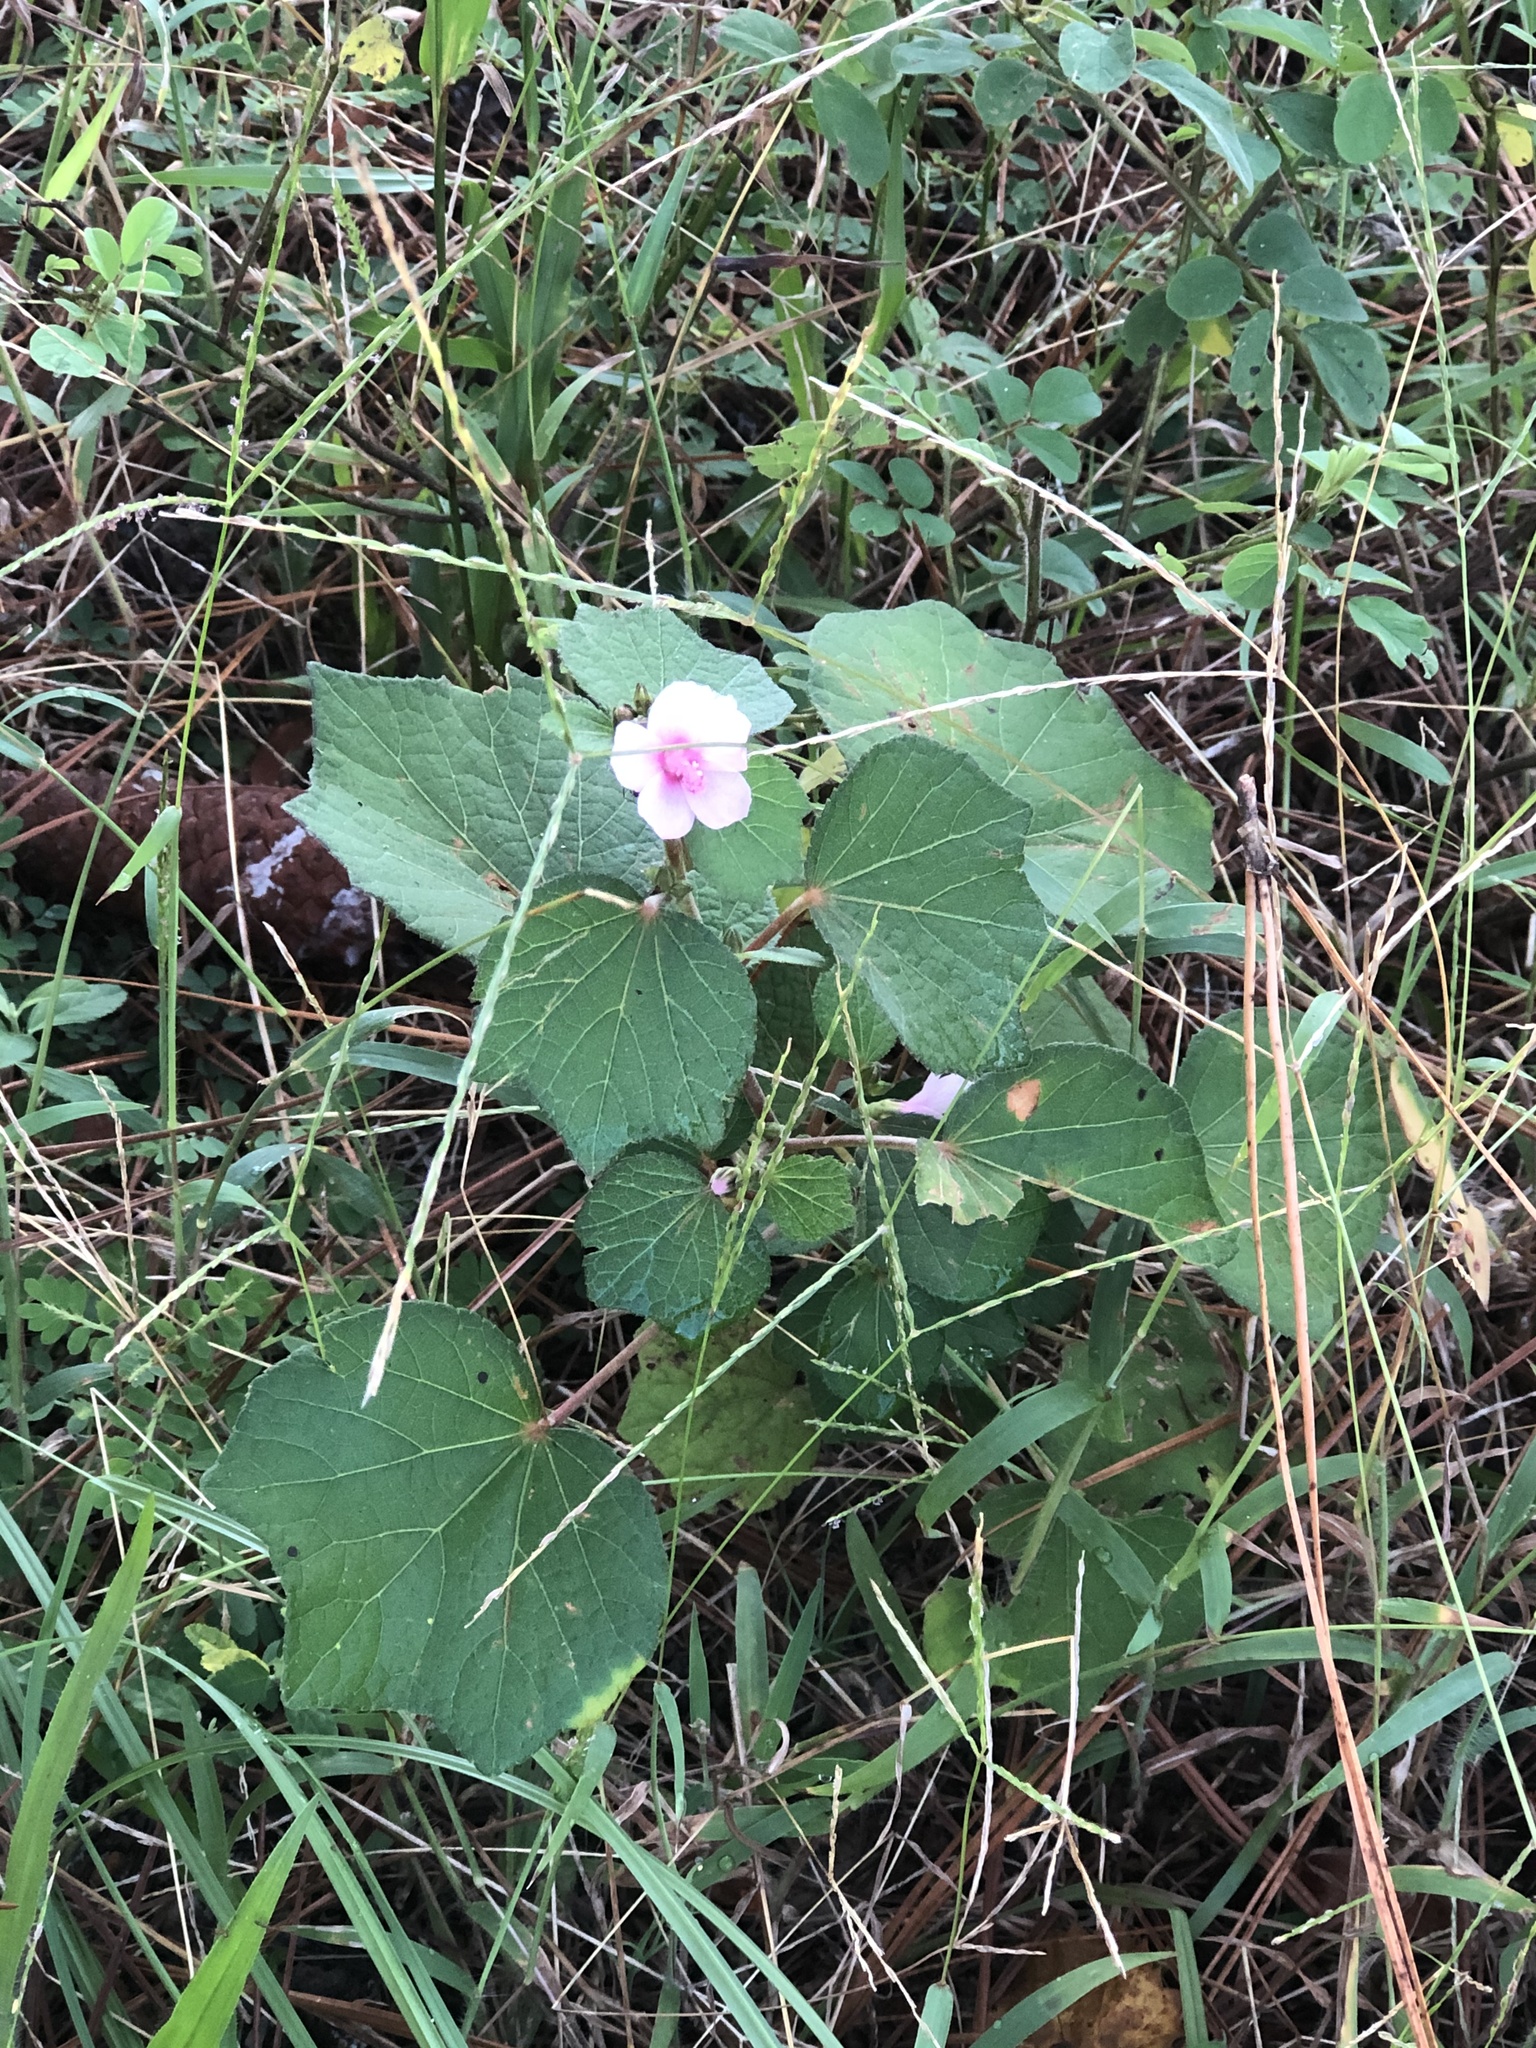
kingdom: Plantae
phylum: Tracheophyta
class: Magnoliopsida
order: Malvales
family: Malvaceae
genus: Urena
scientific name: Urena lobata
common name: Caesarweed
